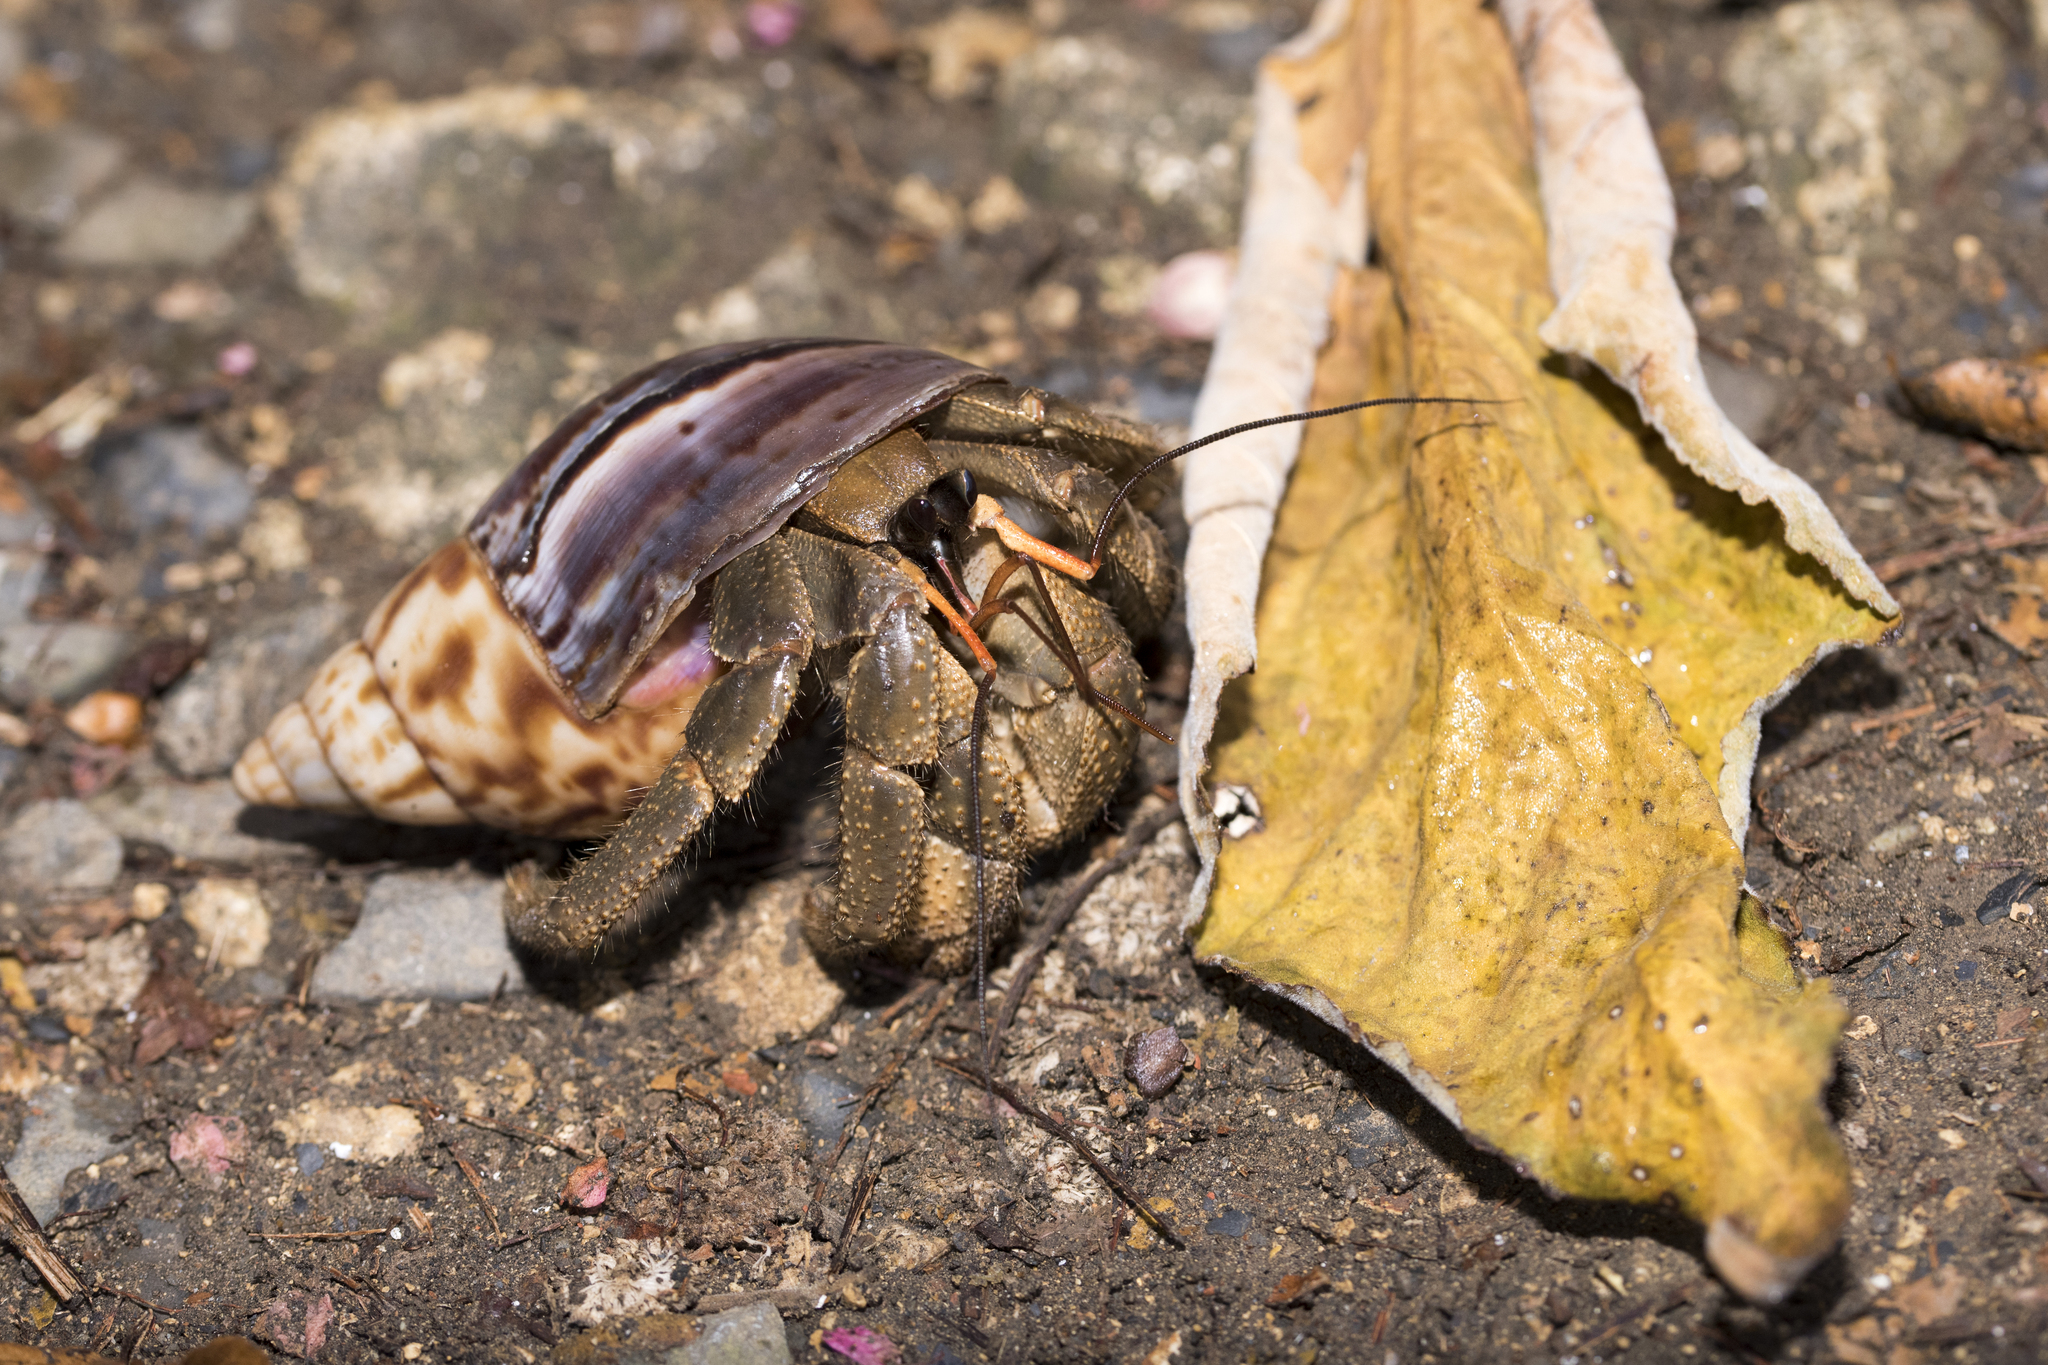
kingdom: Animalia
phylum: Arthropoda
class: Malacostraca
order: Decapoda
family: Coenobitidae
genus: Coenobita
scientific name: Coenobita cavipes
